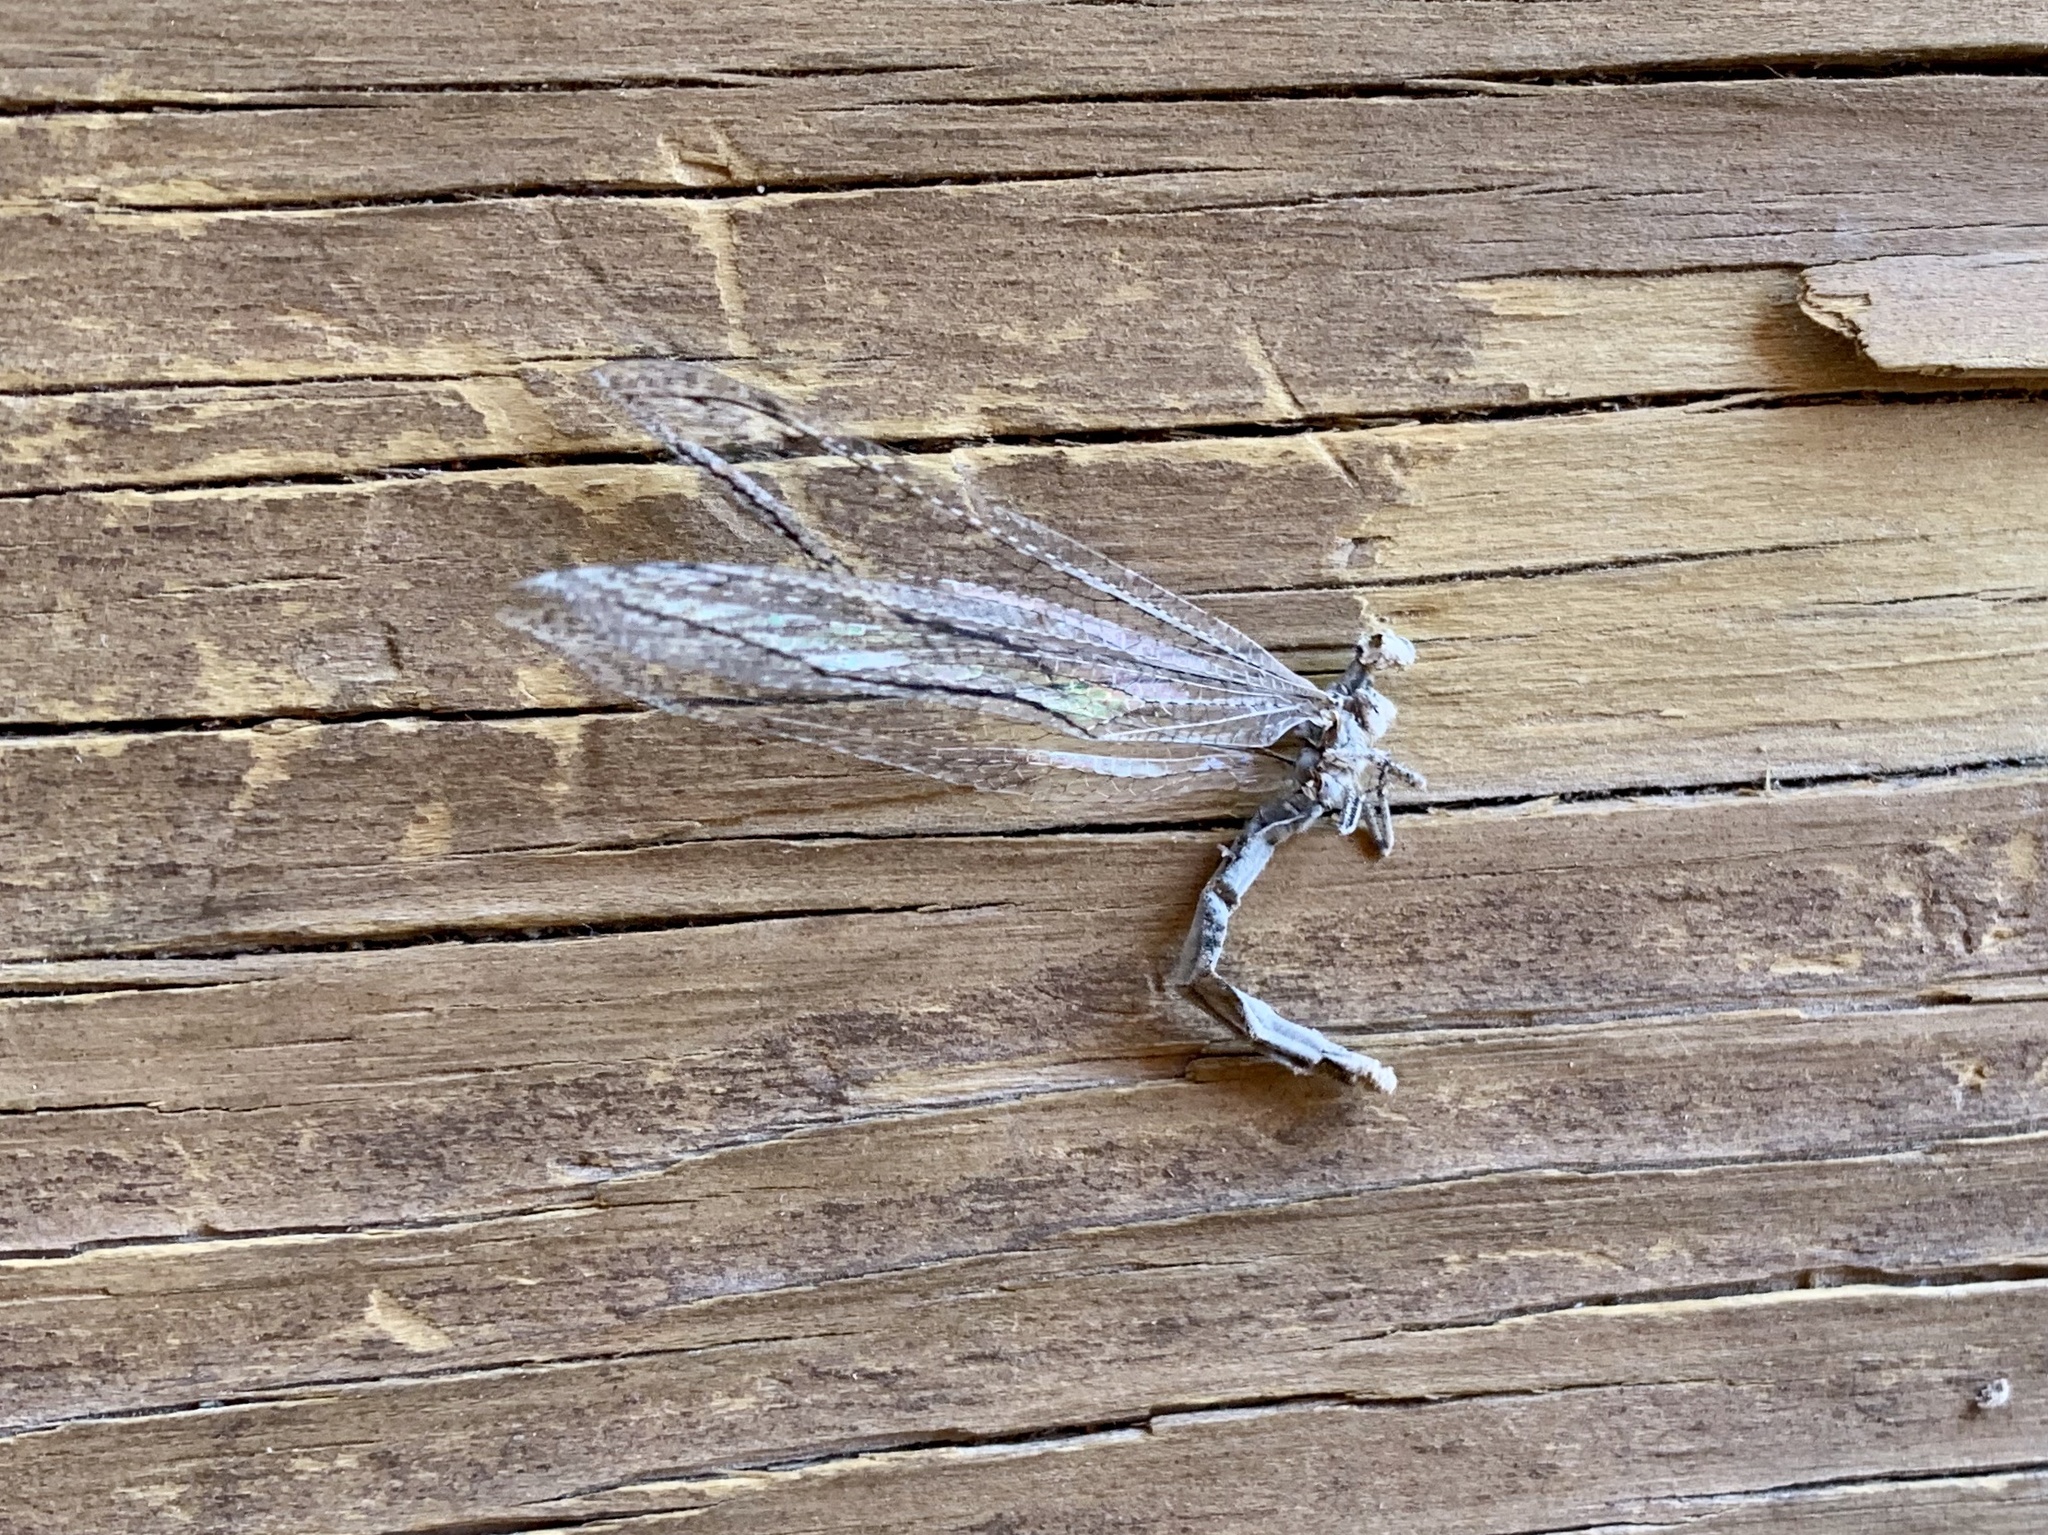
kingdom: Animalia
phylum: Arthropoda
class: Insecta
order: Neuroptera
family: Myrmeleontidae
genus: Euptilon
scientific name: Euptilon sinuatum
